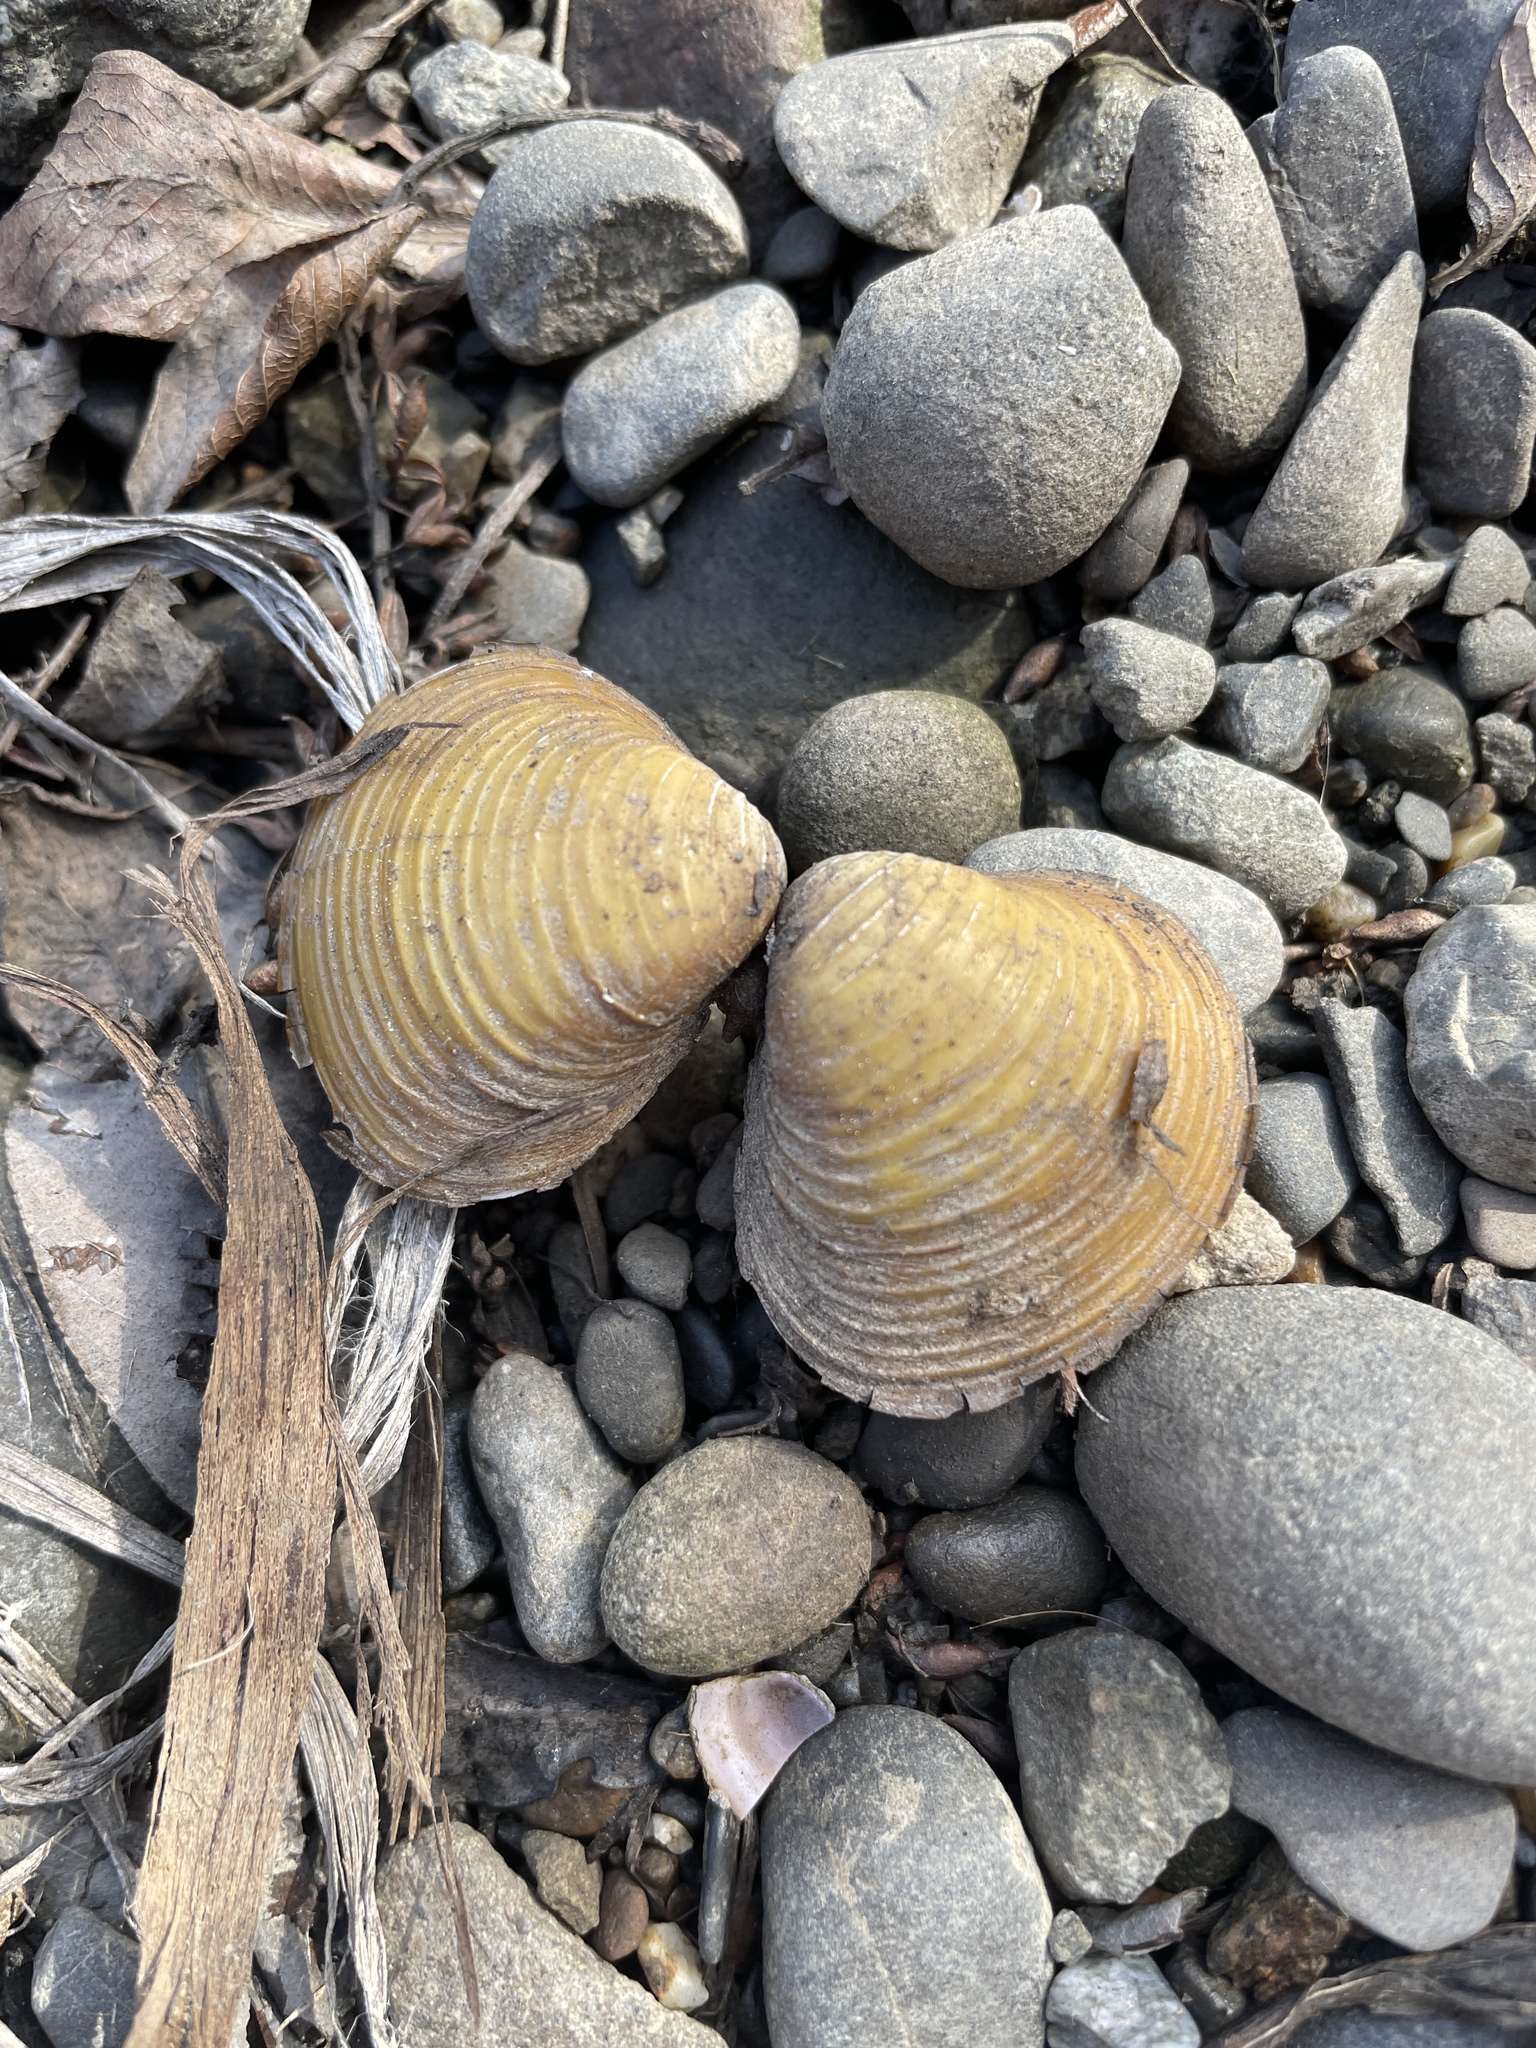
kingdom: Animalia
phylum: Mollusca
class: Bivalvia
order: Venerida
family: Cyrenidae
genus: Corbicula
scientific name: Corbicula fluminea
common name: Asian clam
